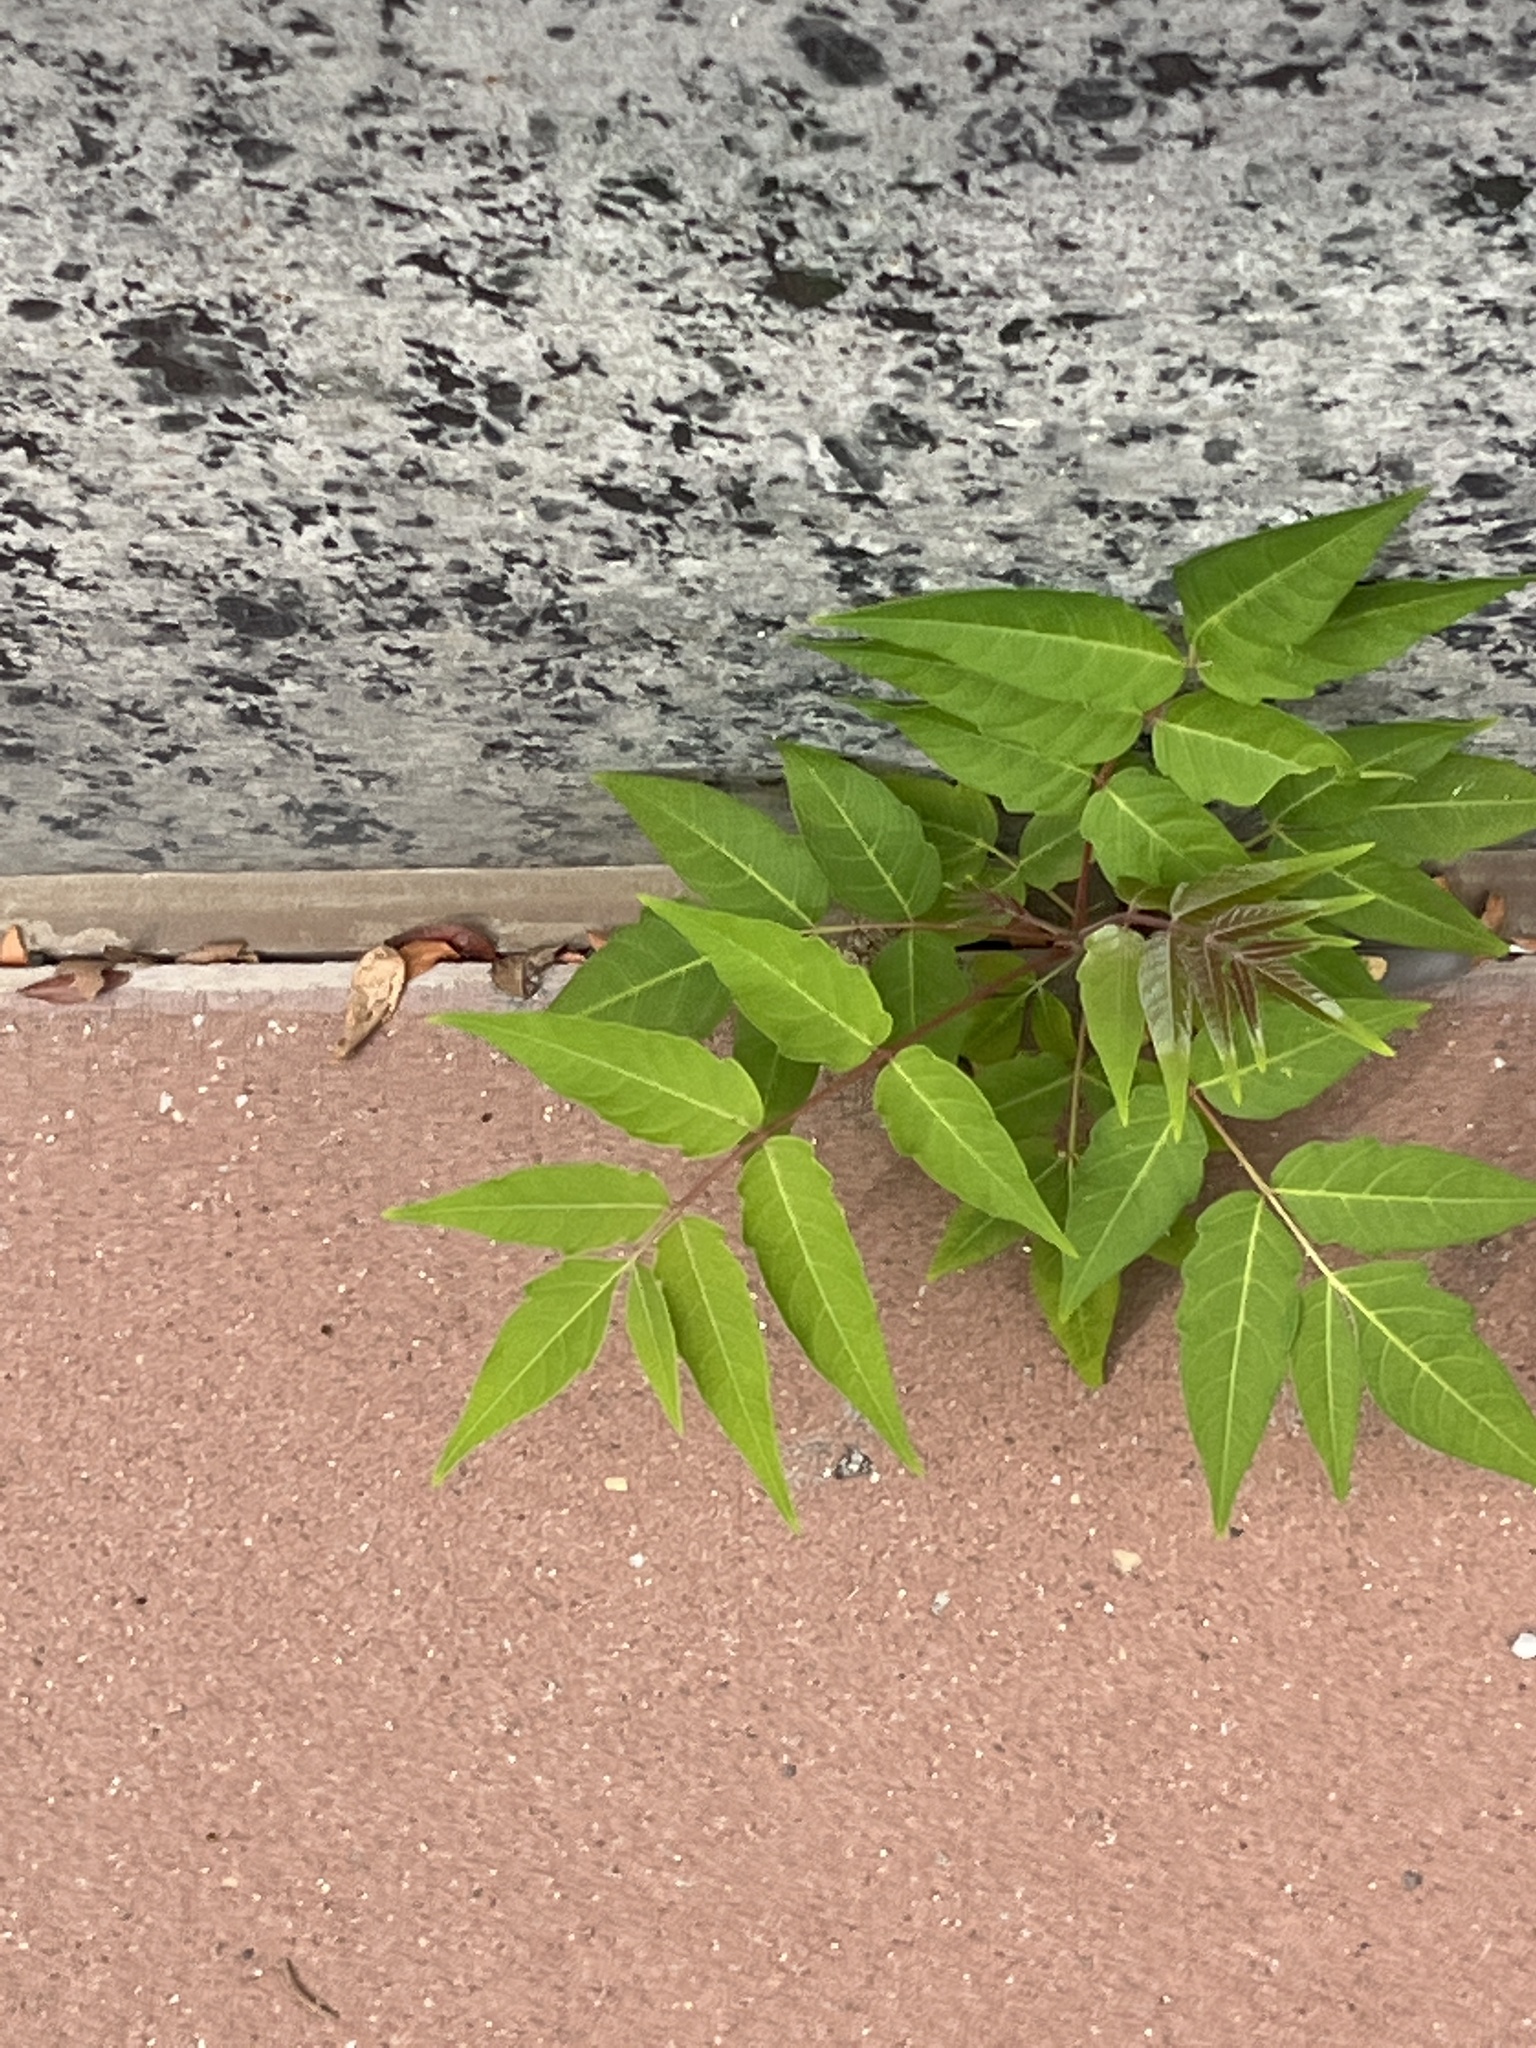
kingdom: Plantae
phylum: Tracheophyta
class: Magnoliopsida
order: Sapindales
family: Simaroubaceae
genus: Ailanthus
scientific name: Ailanthus altissima
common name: Tree-of-heaven
